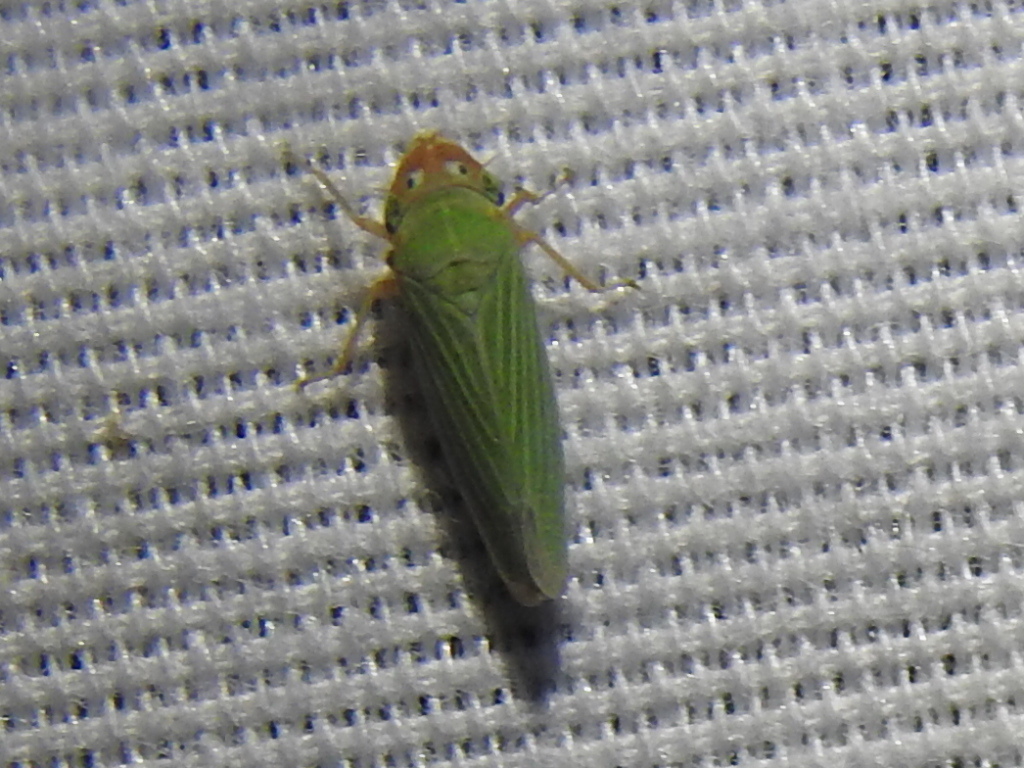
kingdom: Animalia
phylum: Arthropoda
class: Insecta
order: Hemiptera
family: Cicadellidae
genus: Xyphon
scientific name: Xyphon flaviceps
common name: Yellowheaded leafhopper
